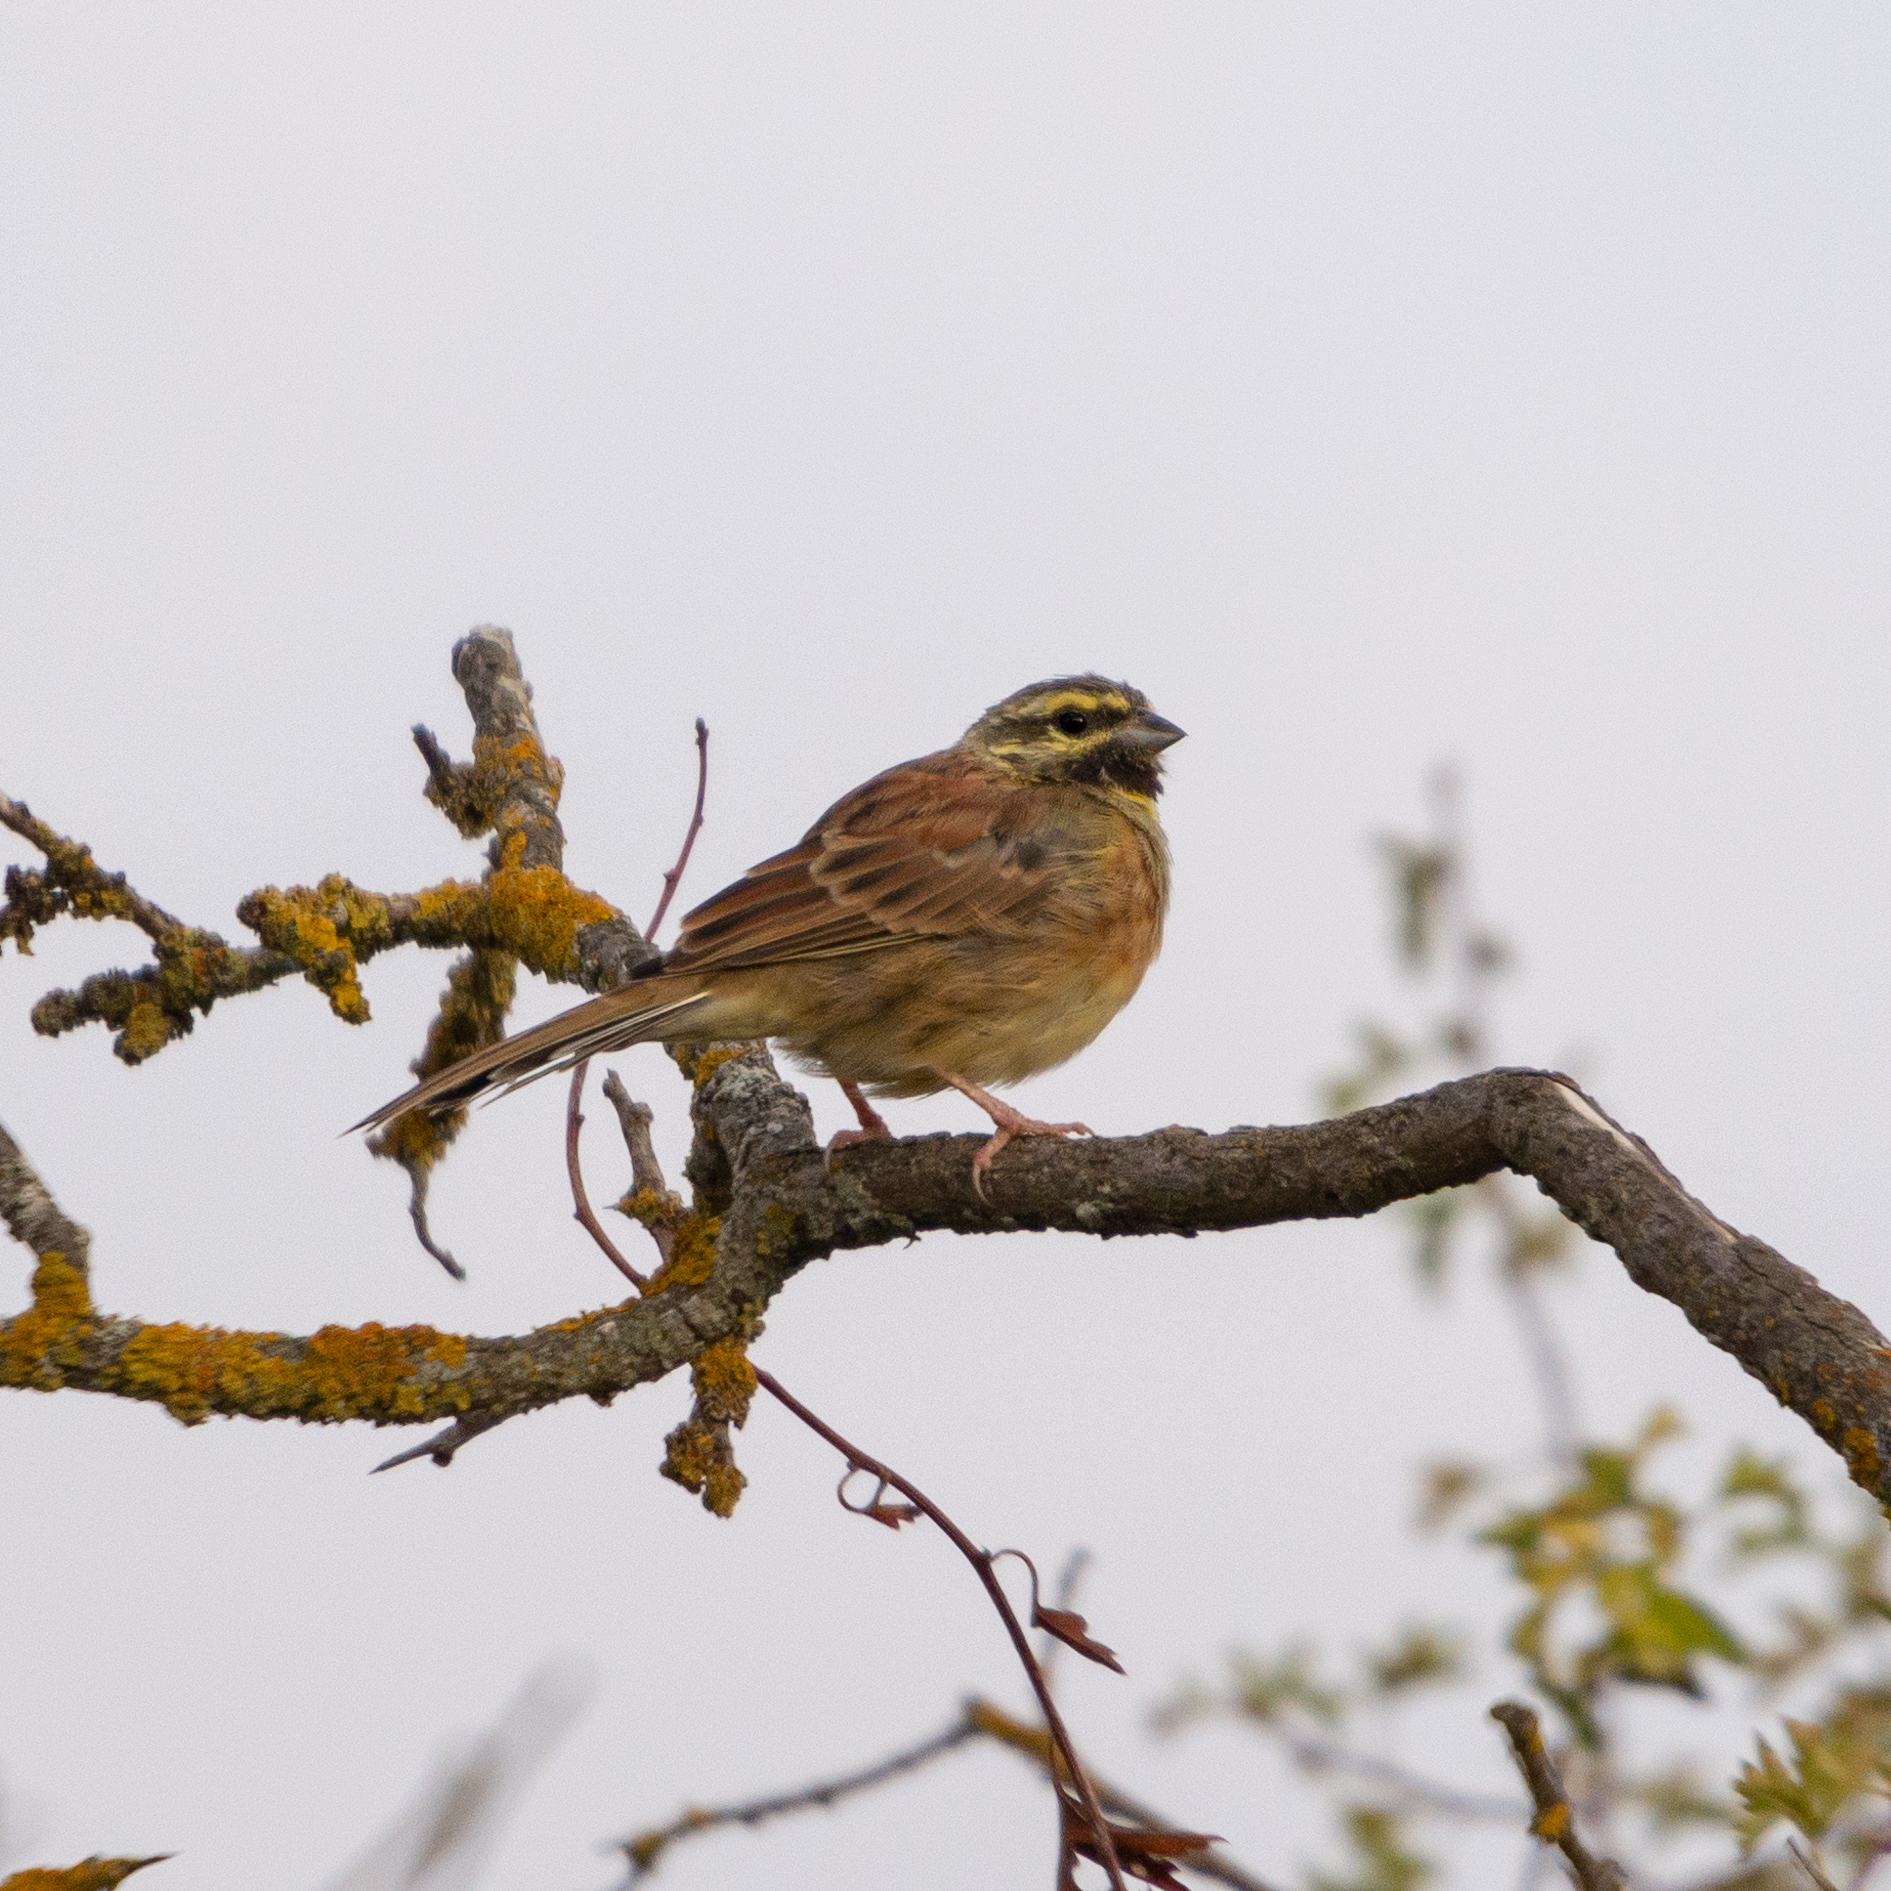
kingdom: Animalia
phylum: Chordata
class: Aves
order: Passeriformes
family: Emberizidae
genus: Emberiza
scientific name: Emberiza cirlus
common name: Cirl bunting
